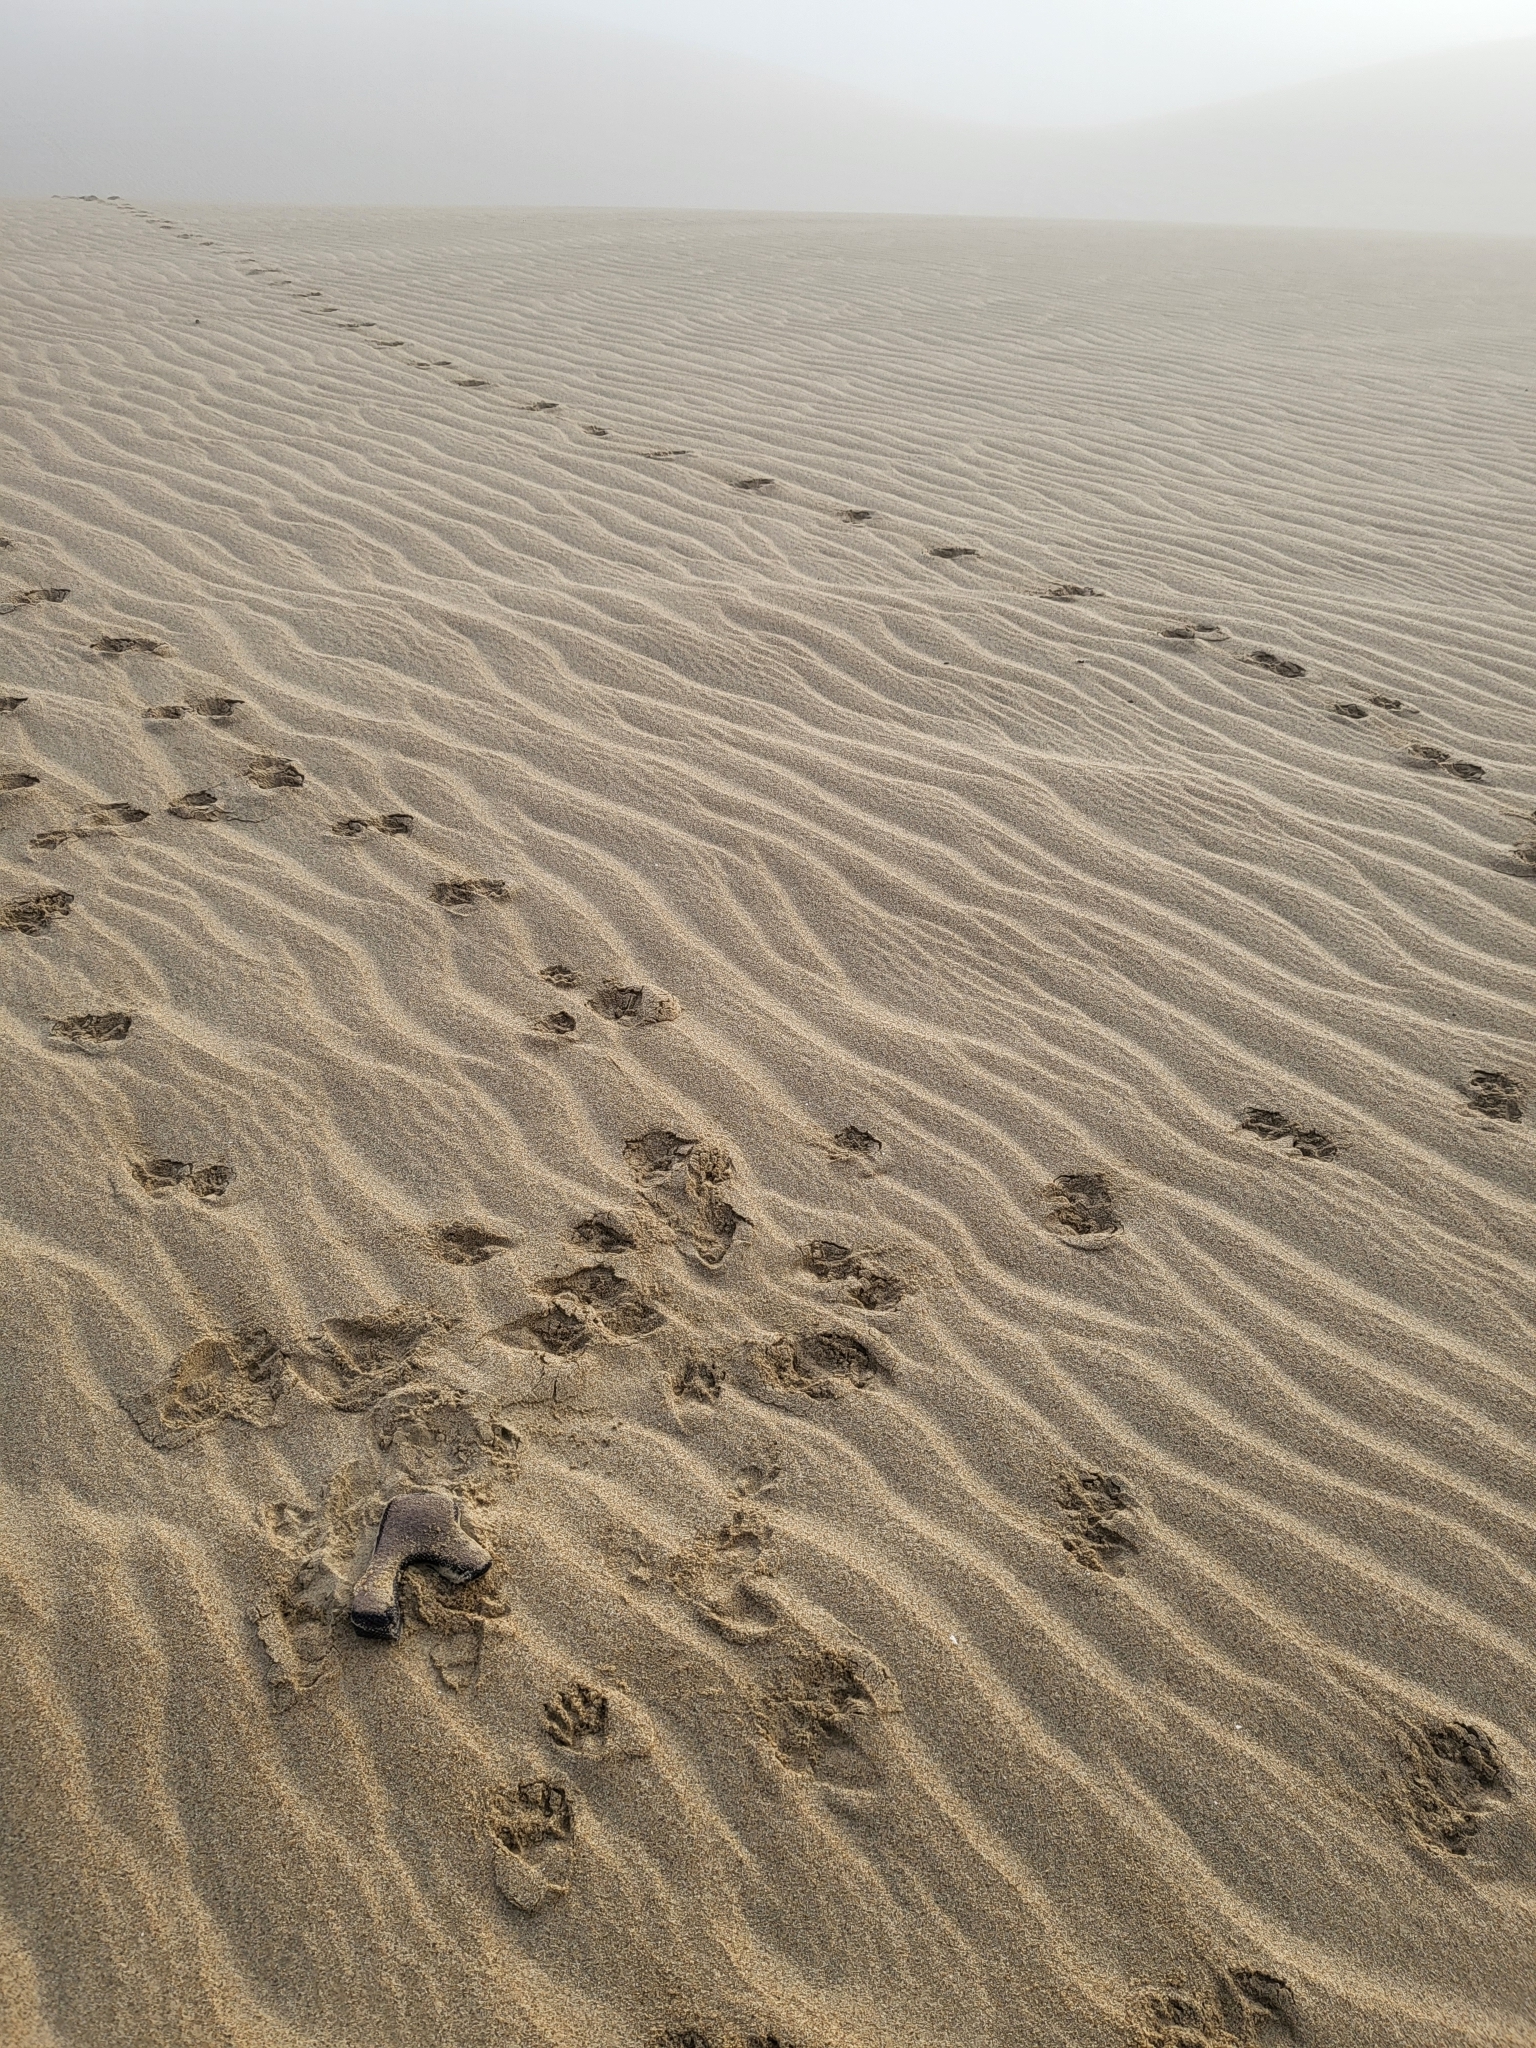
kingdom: Animalia
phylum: Chordata
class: Mammalia
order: Carnivora
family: Procyonidae
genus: Procyon
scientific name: Procyon lotor
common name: Raccoon
